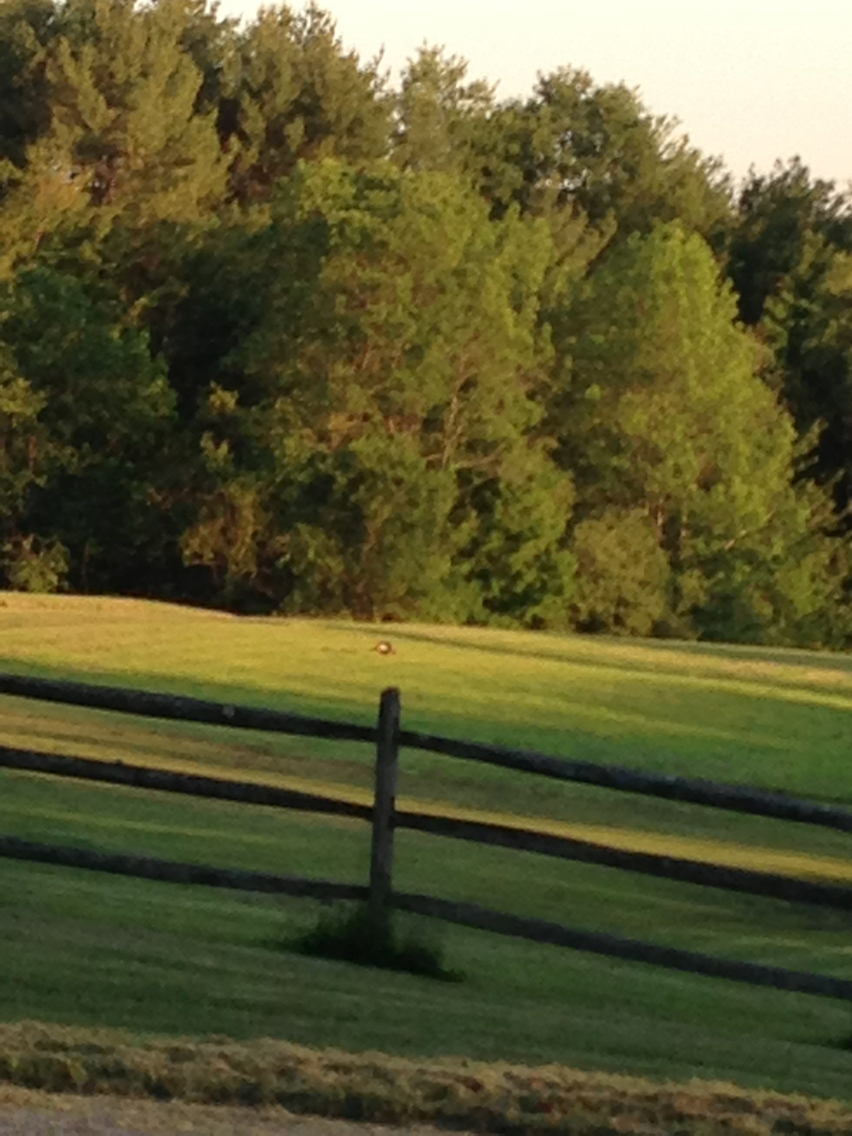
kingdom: Animalia
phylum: Chordata
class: Aves
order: Galliformes
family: Phasianidae
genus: Meleagris
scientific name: Meleagris gallopavo
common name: Wild turkey
